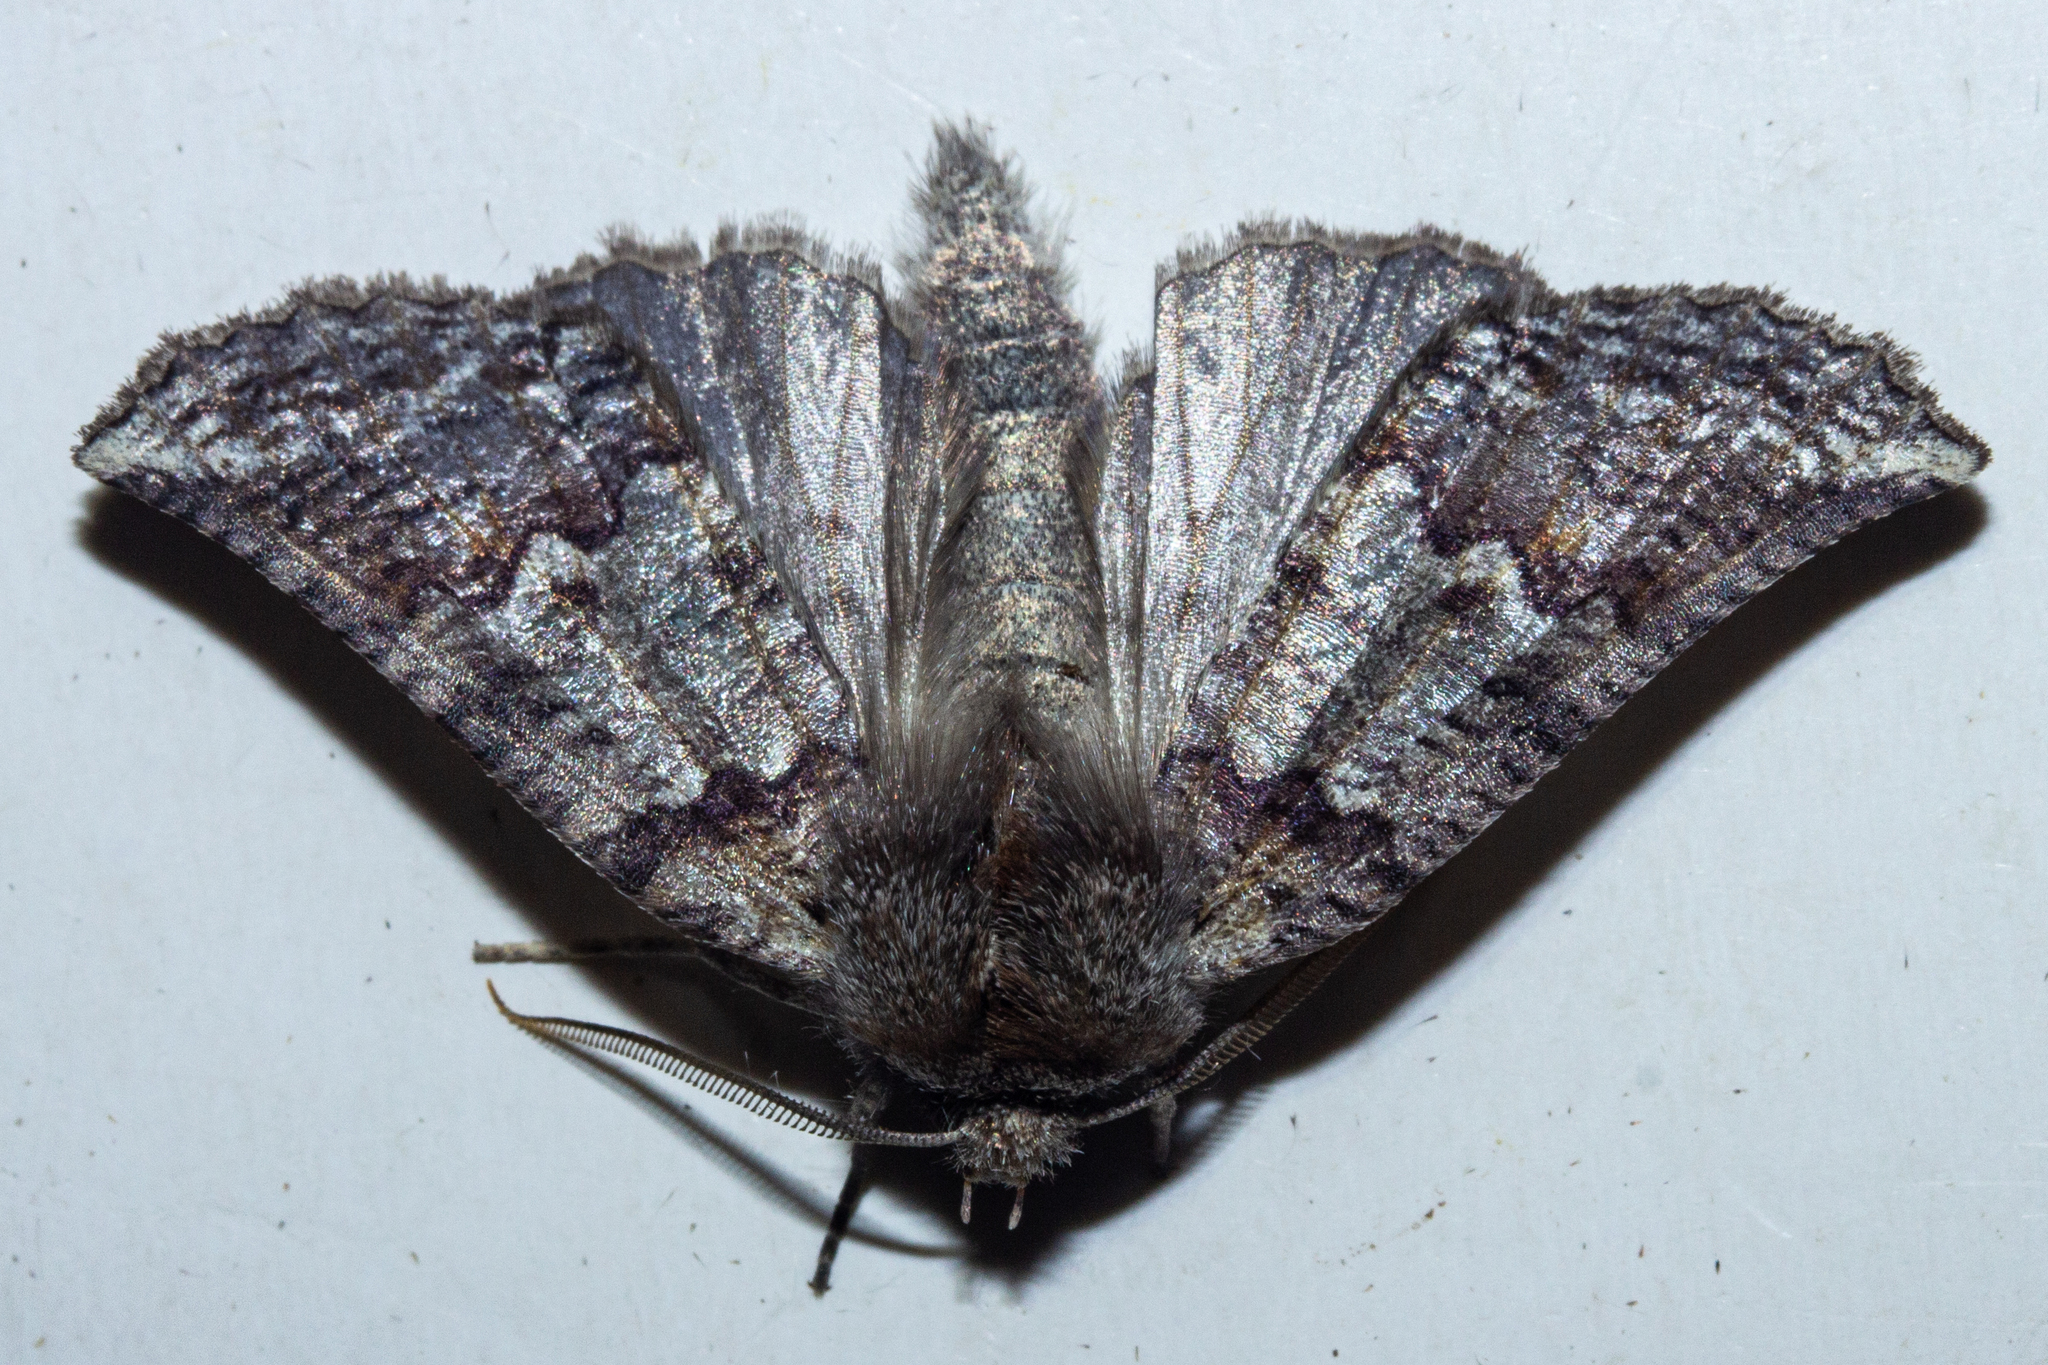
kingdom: Animalia
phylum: Arthropoda
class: Insecta
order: Lepidoptera
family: Geometridae
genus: Declana
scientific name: Declana
